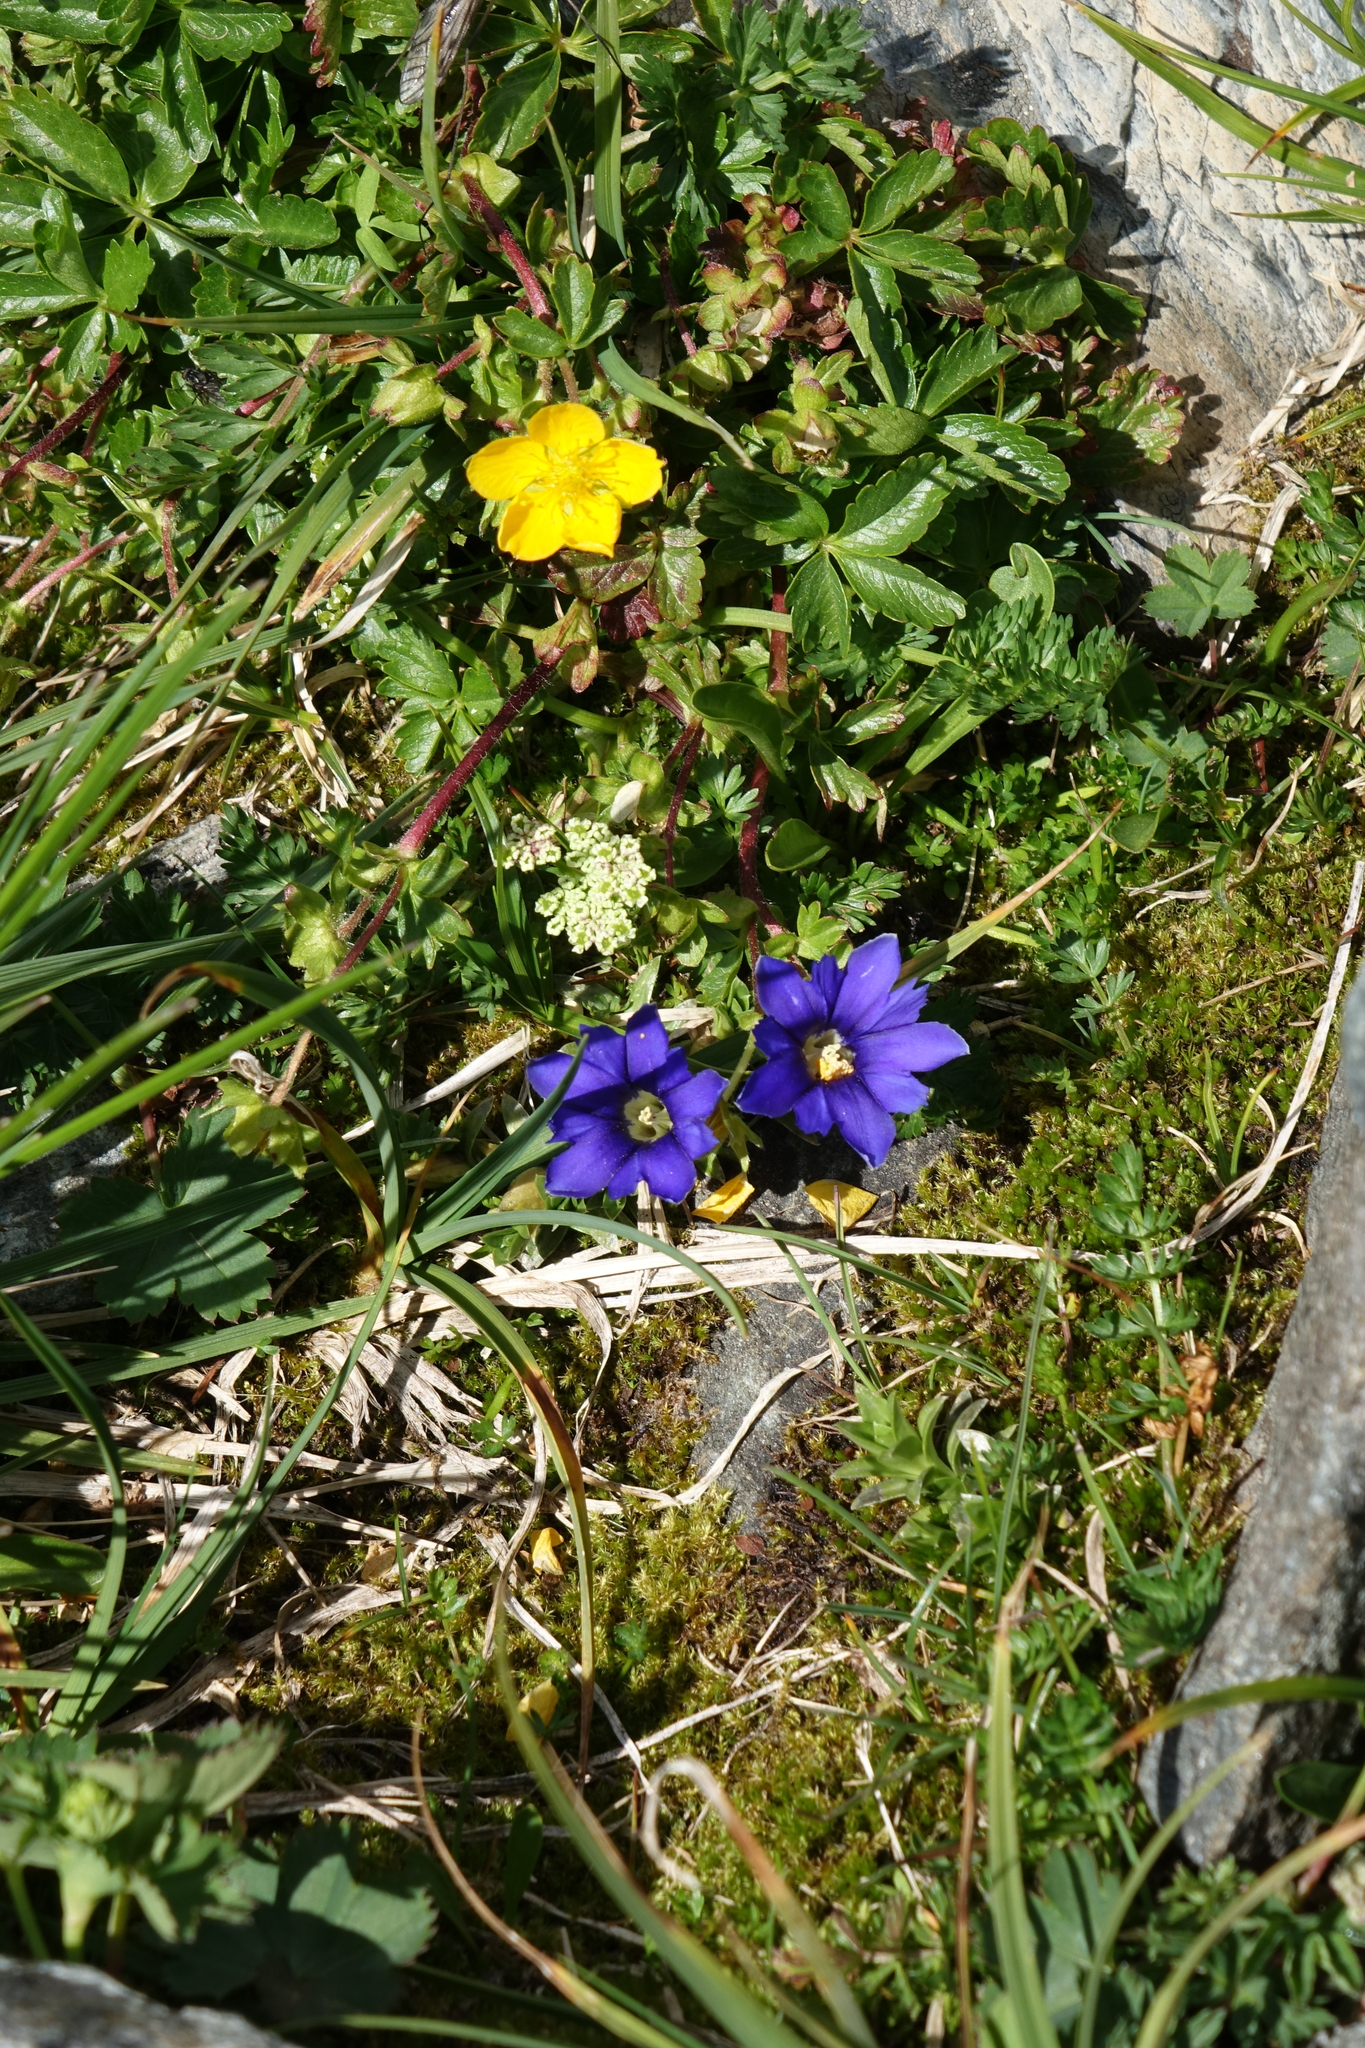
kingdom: Plantae
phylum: Tracheophyta
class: Magnoliopsida
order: Gentianales
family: Gentianaceae
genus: Gentiana
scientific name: Gentiana dshimilensis
